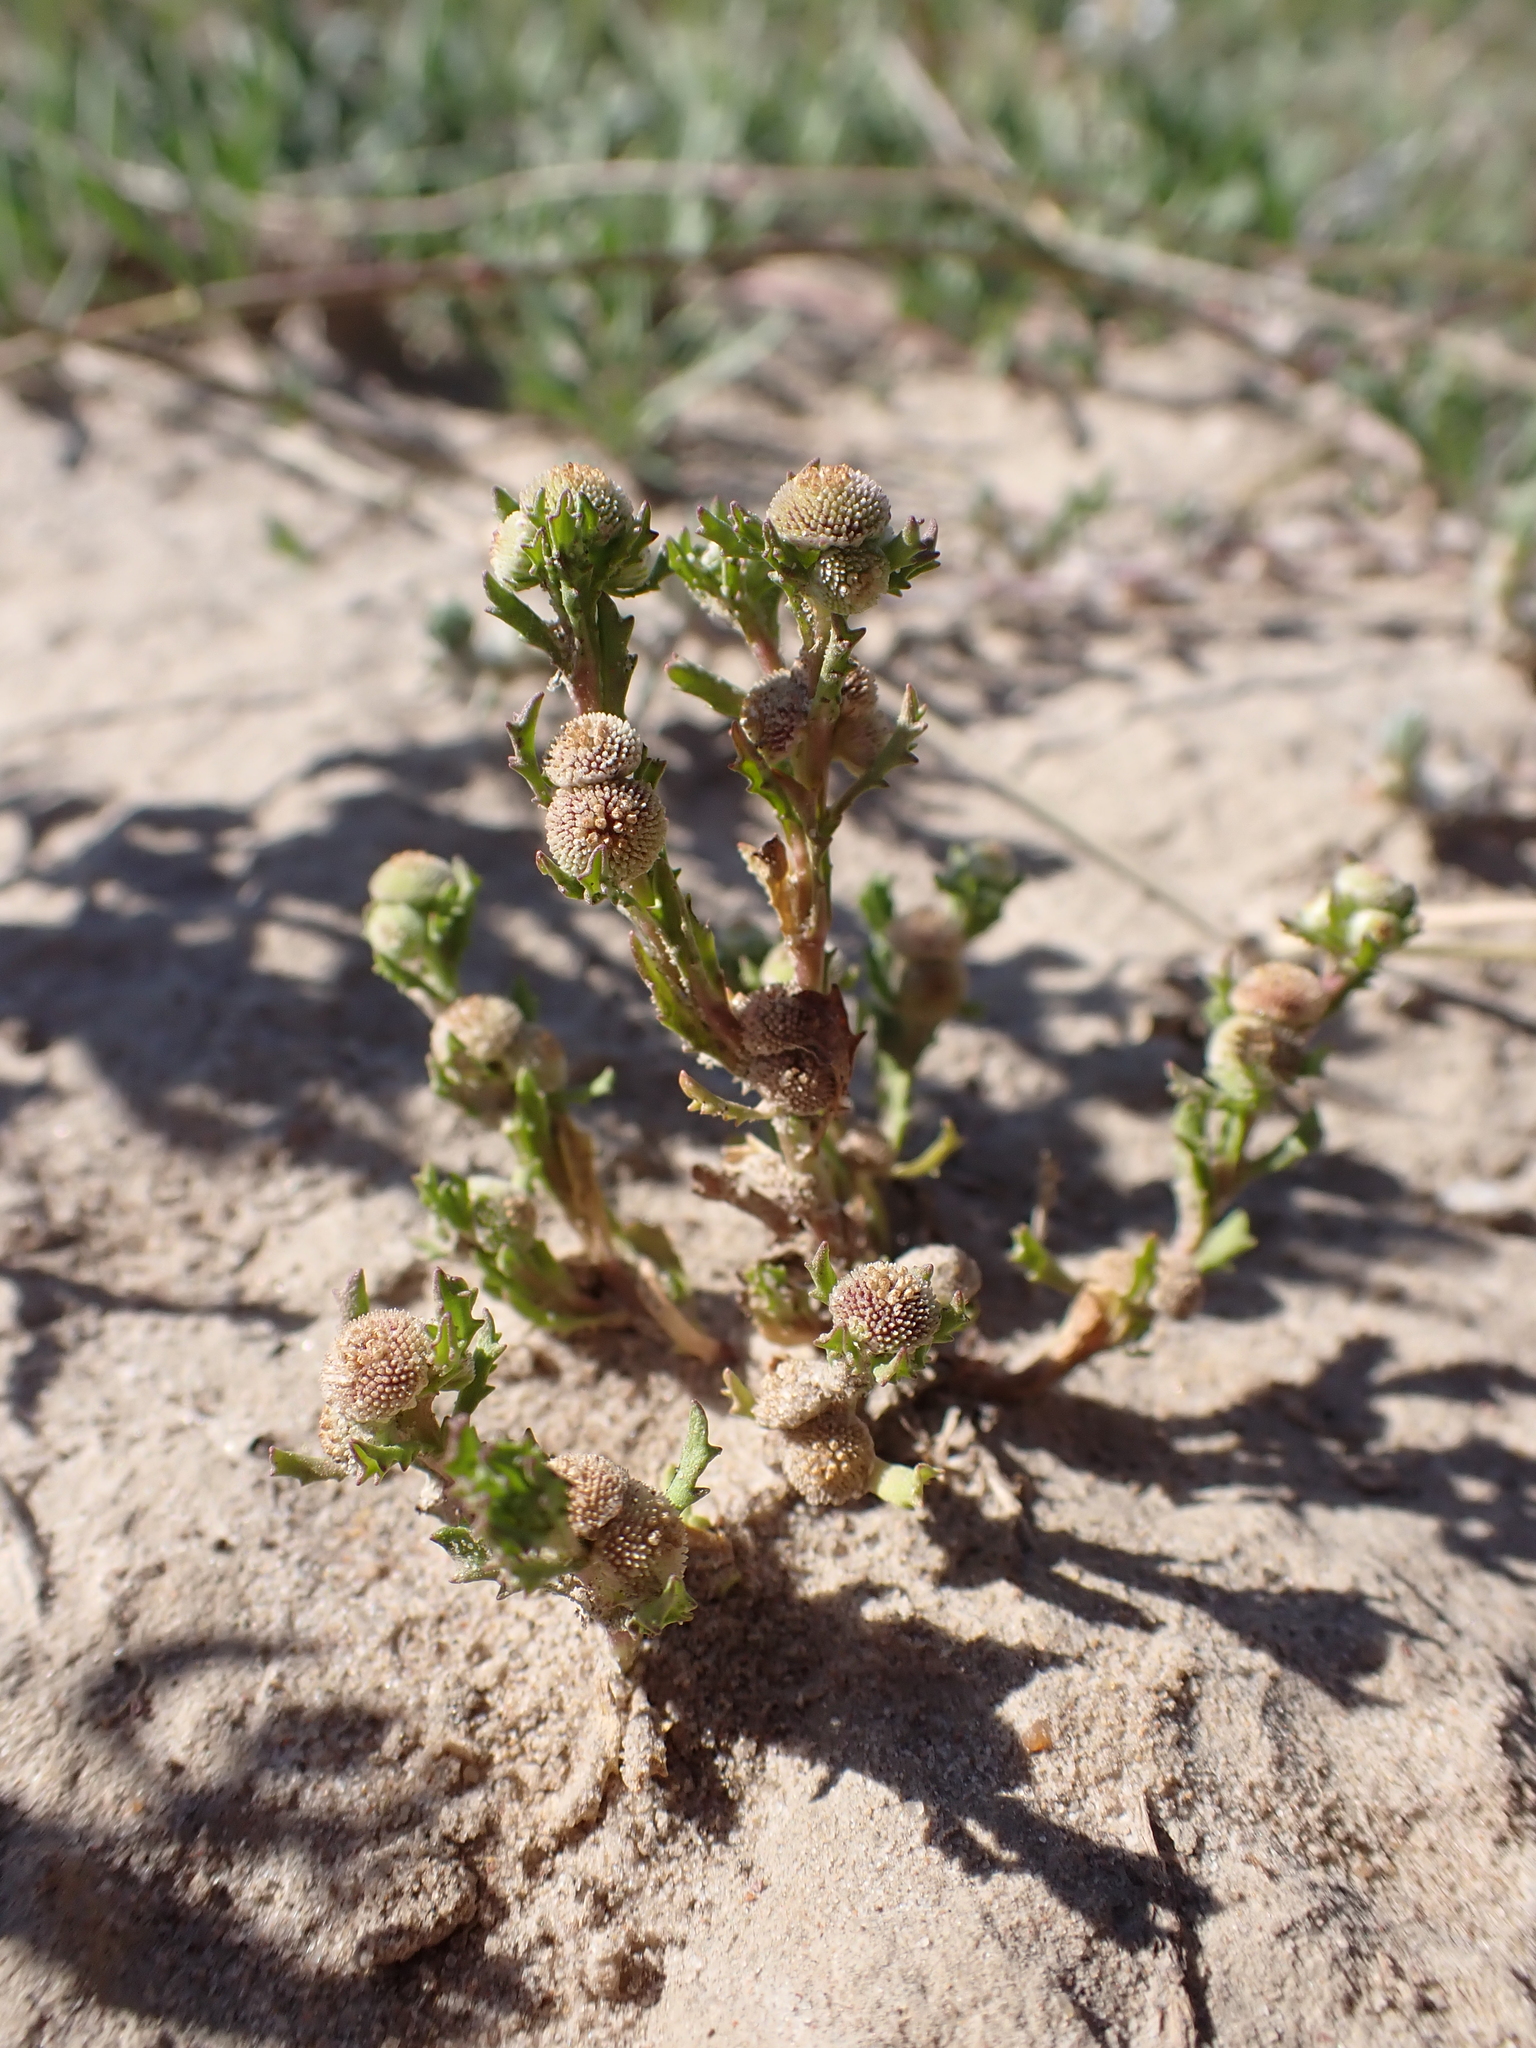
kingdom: Plantae
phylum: Tracheophyta
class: Magnoliopsida
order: Asterales
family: Asteraceae
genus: Centipeda
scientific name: Centipeda pleiocephala
